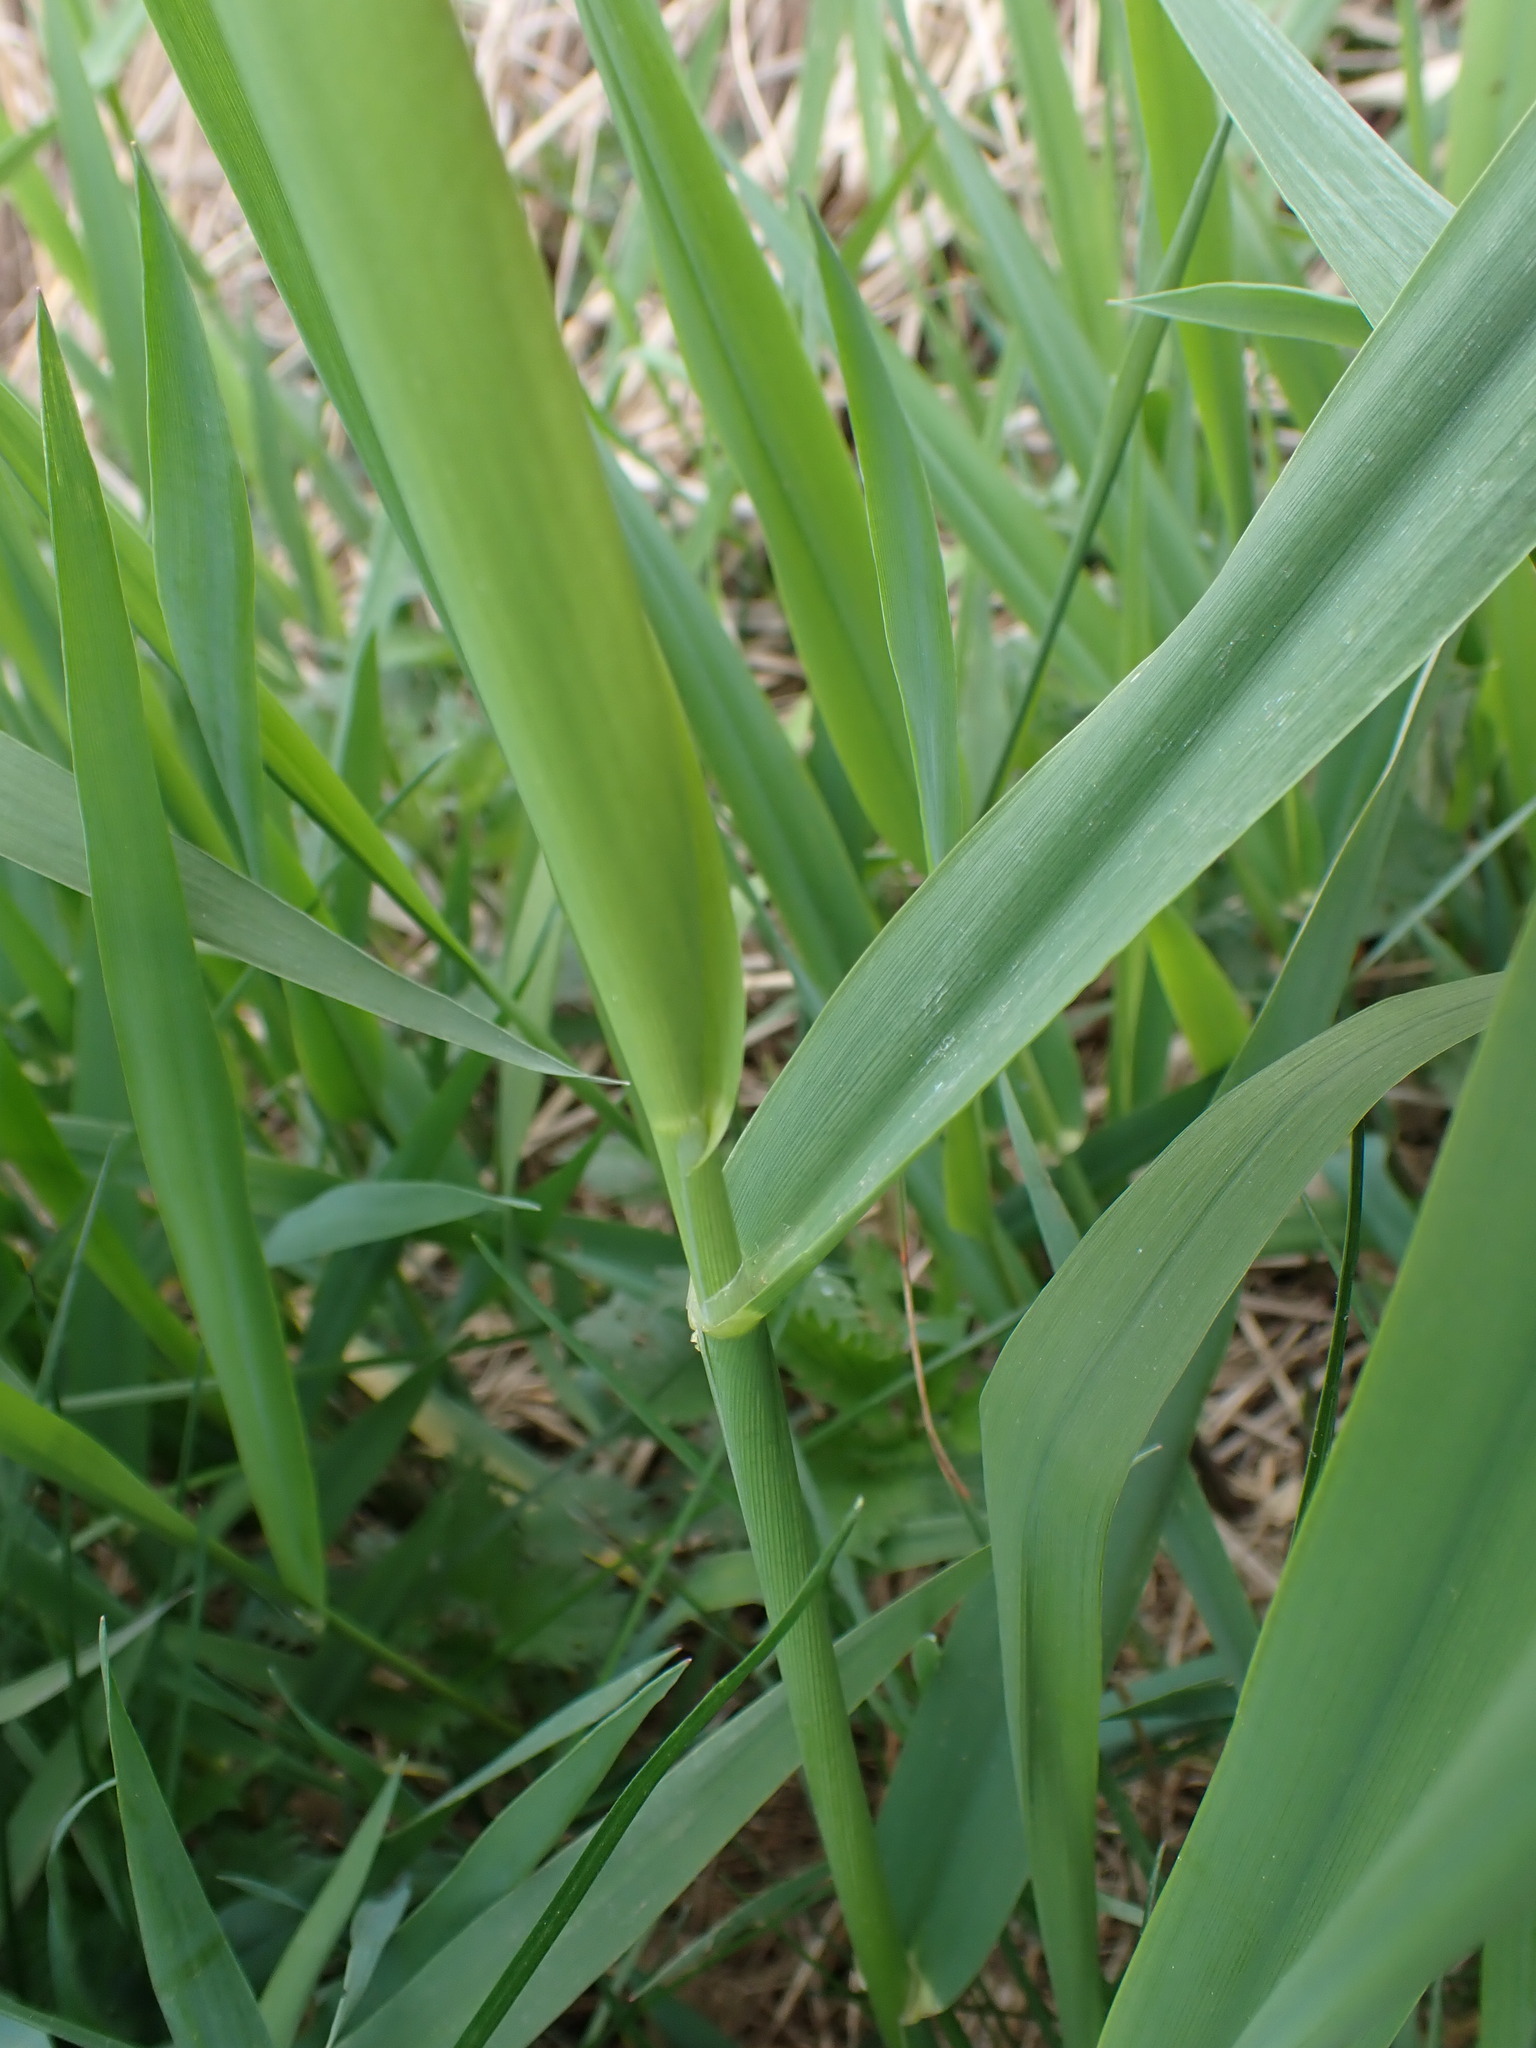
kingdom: Plantae
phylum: Tracheophyta
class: Liliopsida
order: Poales
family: Poaceae
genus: Phalaris
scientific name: Phalaris arundinacea
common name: Reed canary-grass
